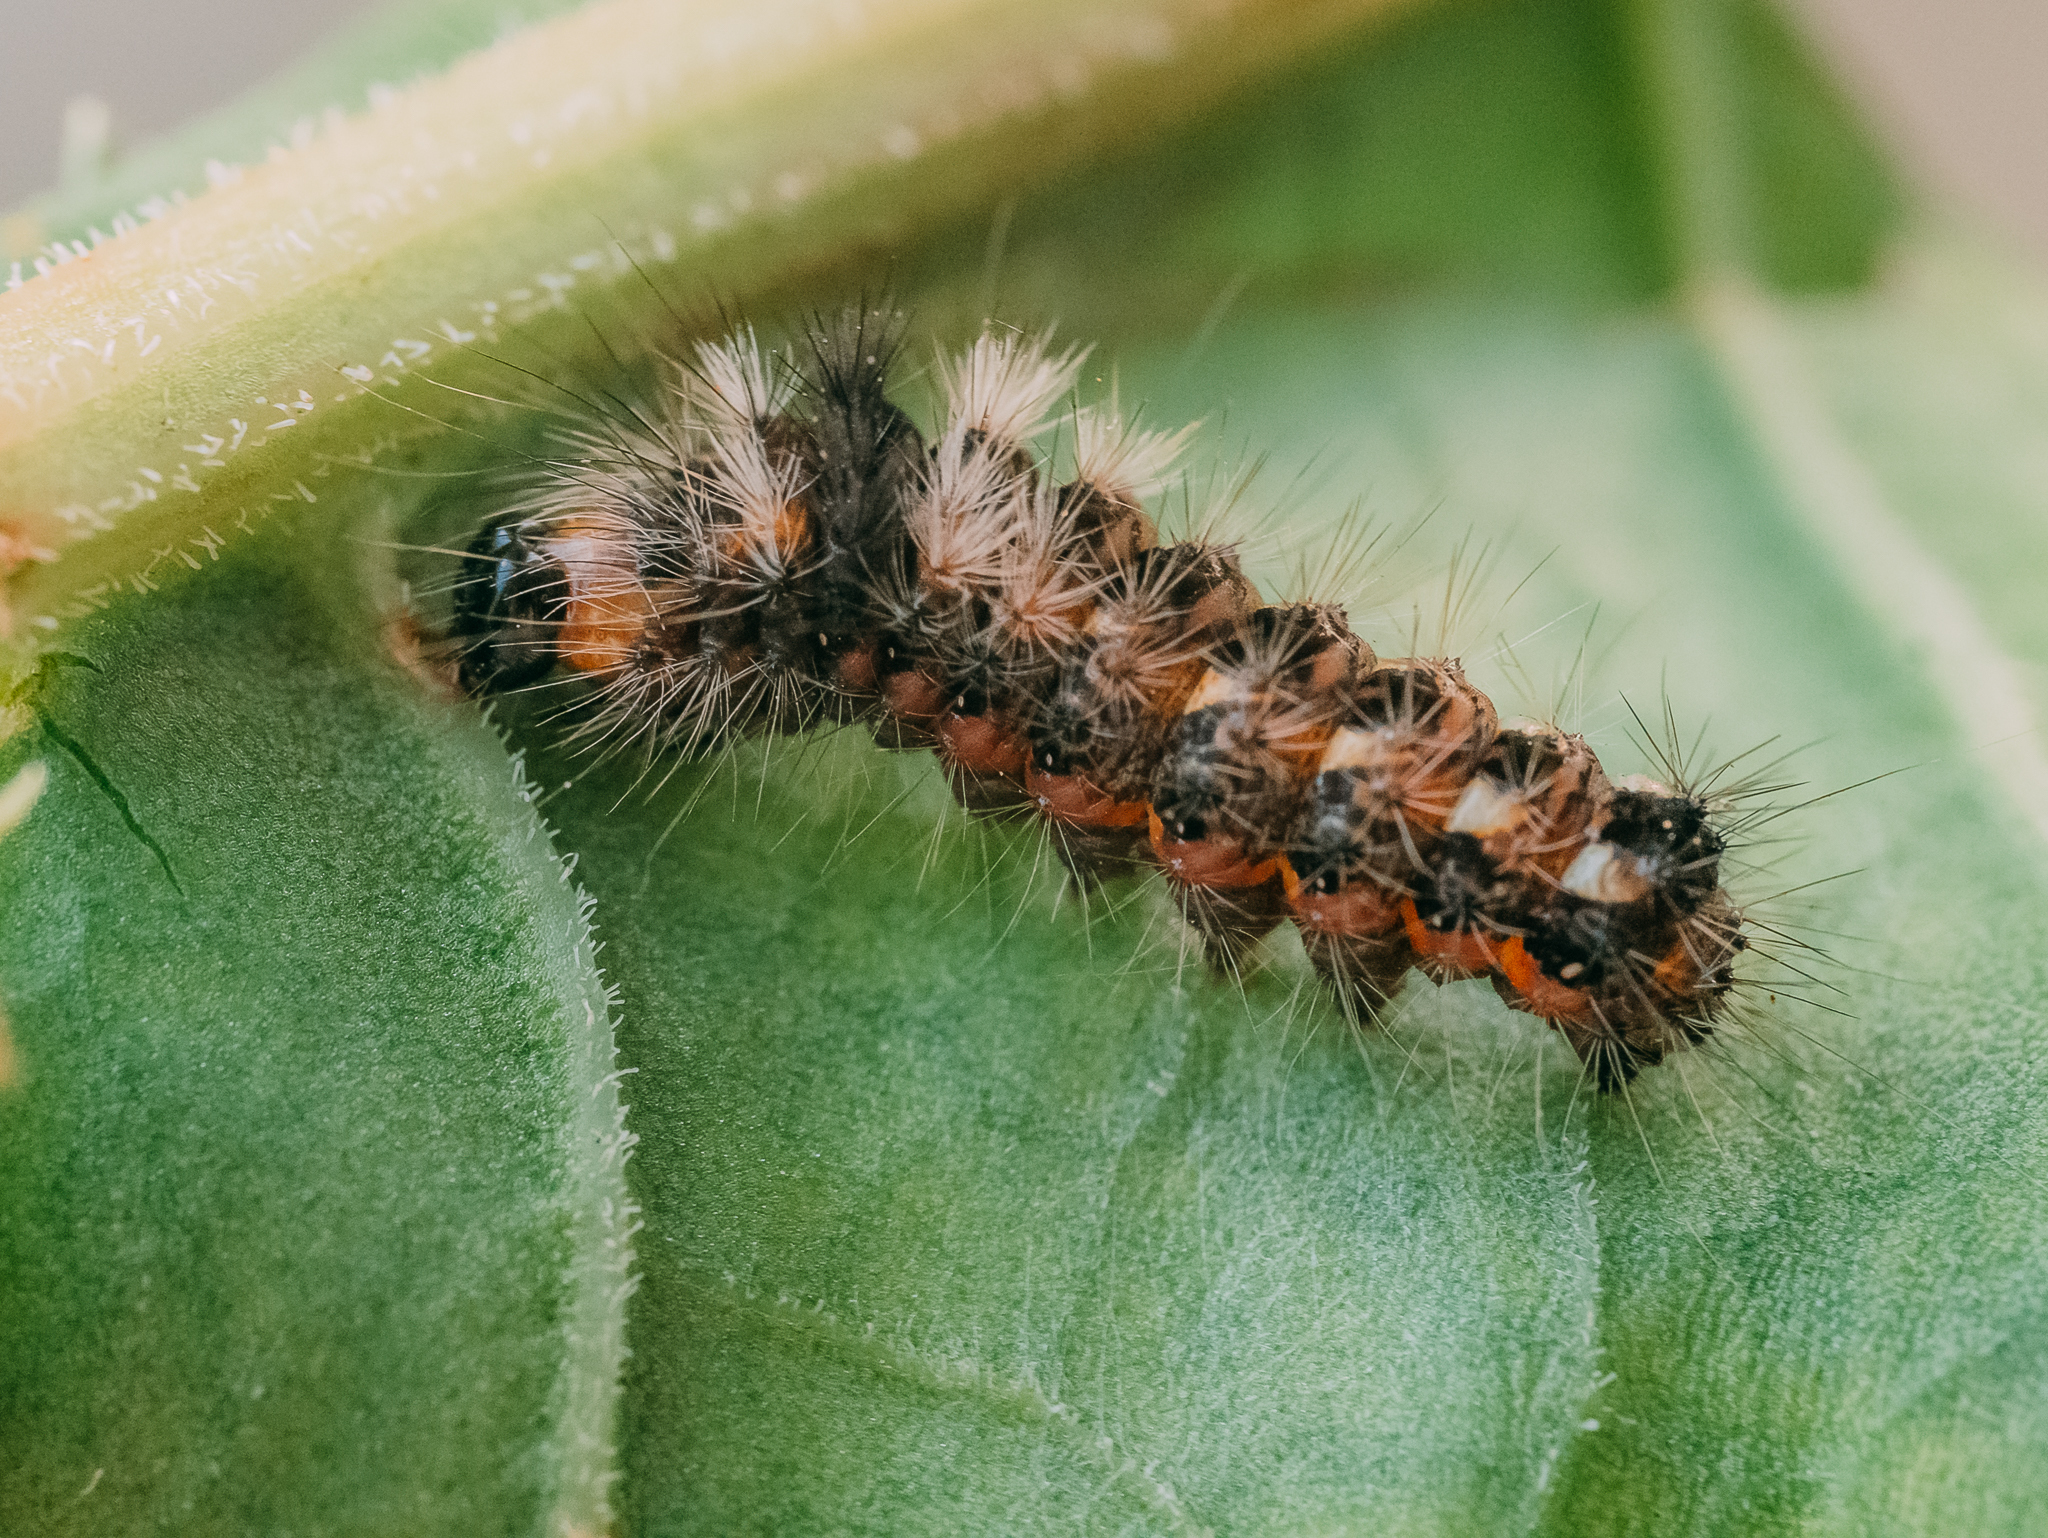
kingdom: Animalia
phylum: Arthropoda
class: Insecta
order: Lepidoptera
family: Noctuidae
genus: Acronicta
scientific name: Acronicta rumicis
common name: Knot grass
